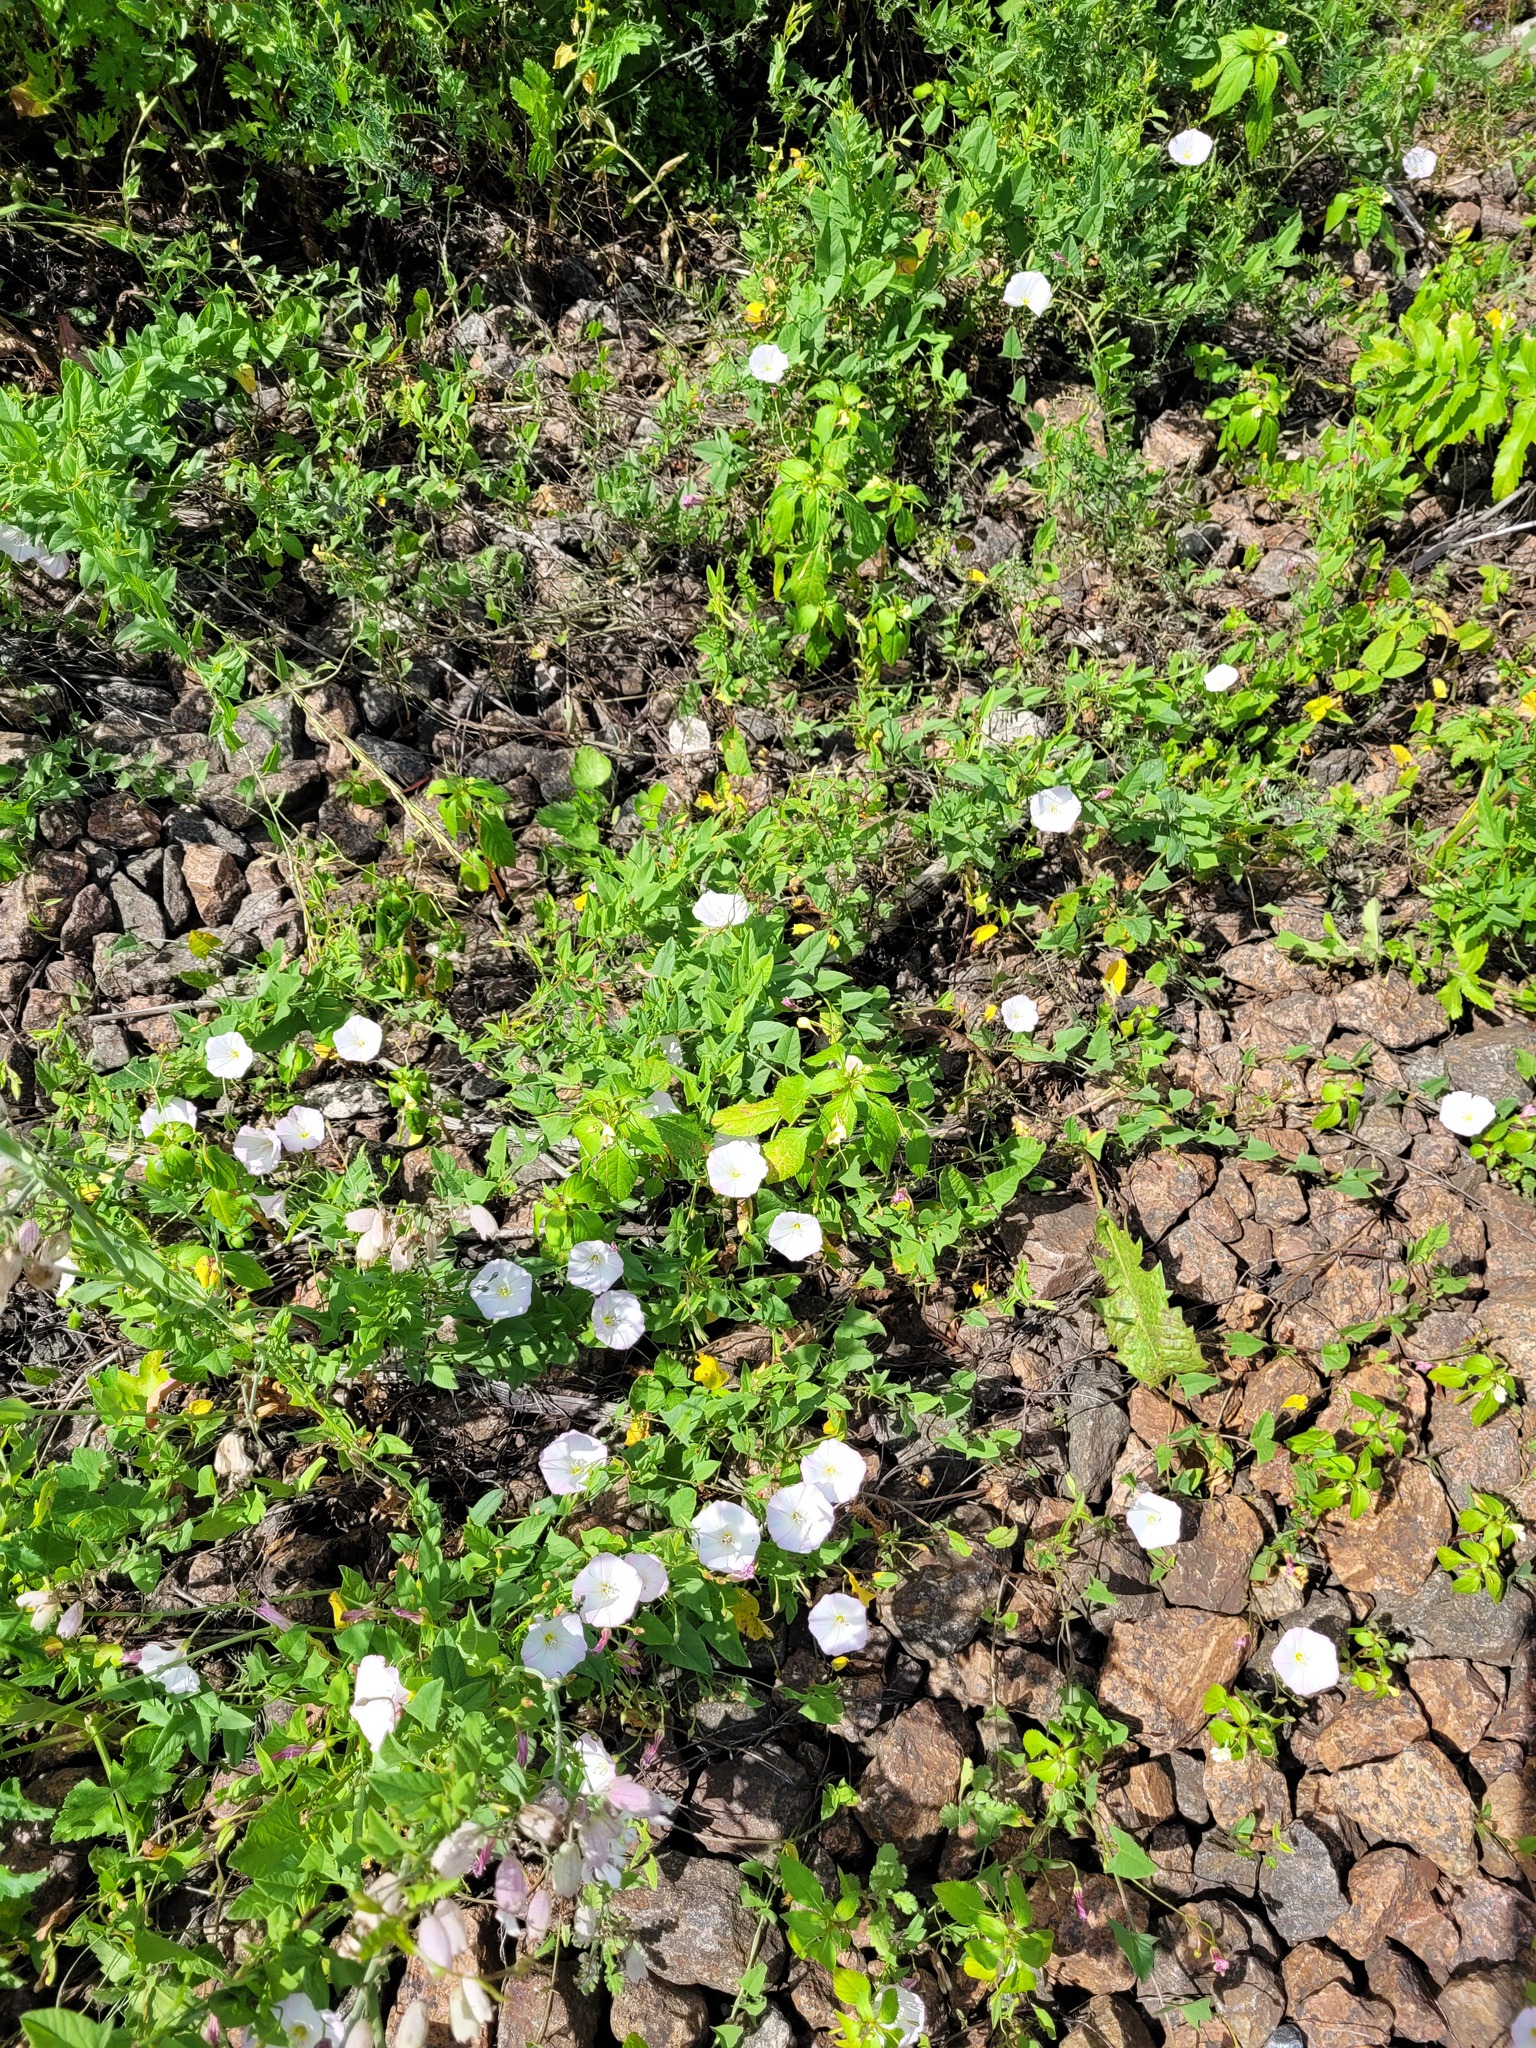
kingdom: Plantae
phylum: Tracheophyta
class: Magnoliopsida
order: Solanales
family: Convolvulaceae
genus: Convolvulus
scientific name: Convolvulus arvensis
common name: Field bindweed
